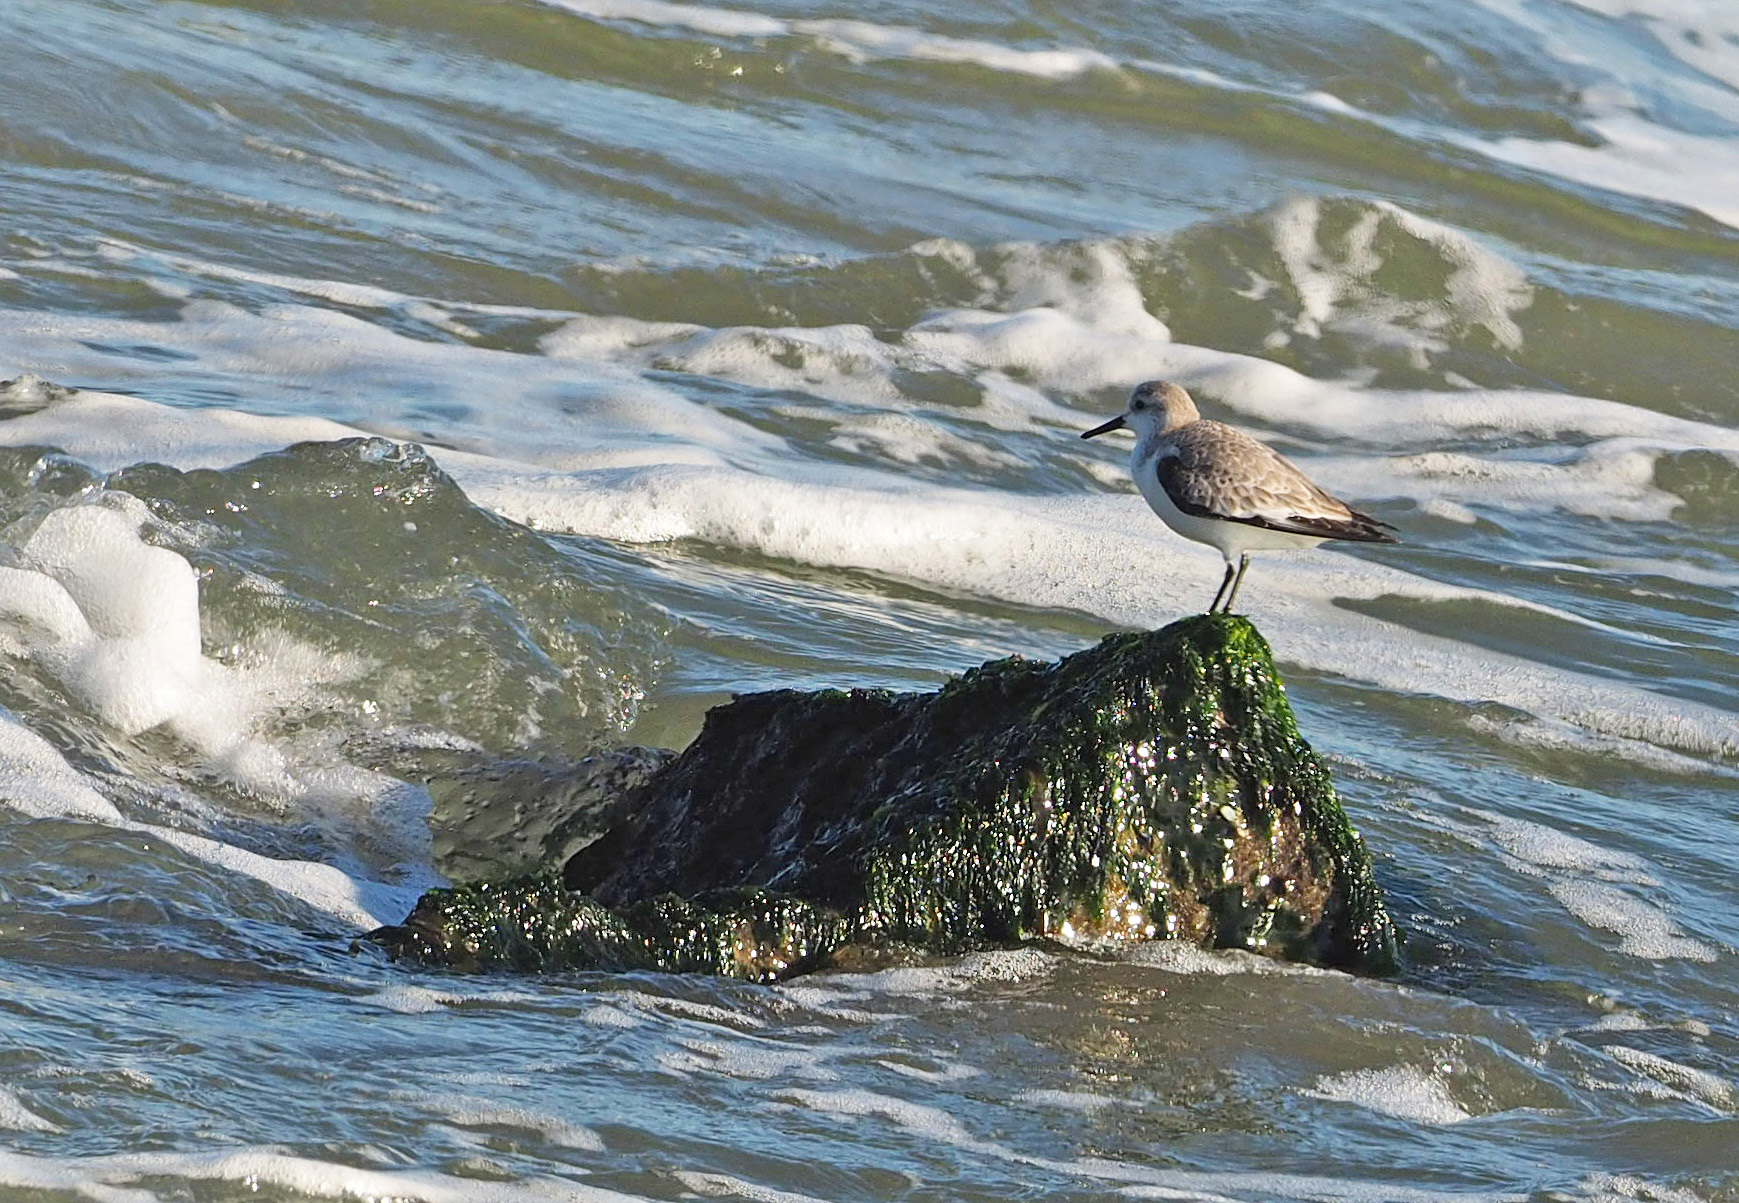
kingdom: Animalia
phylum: Chordata
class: Aves
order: Charadriiformes
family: Scolopacidae
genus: Calidris
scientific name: Calidris alba
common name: Sanderling
